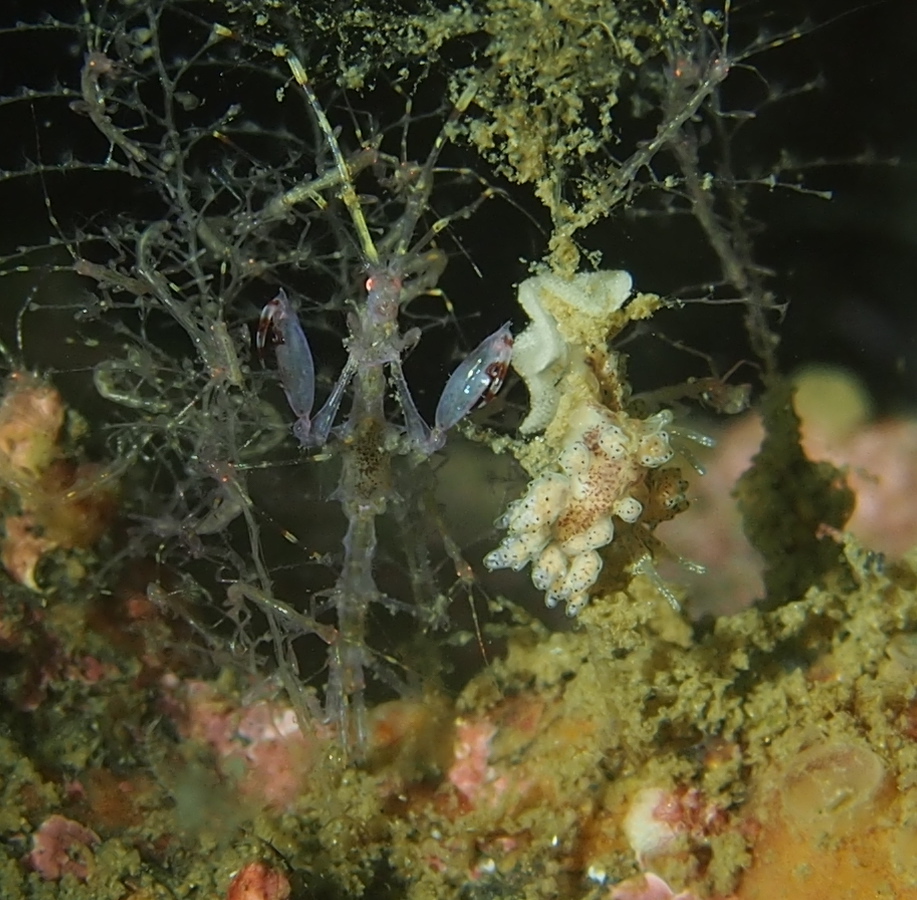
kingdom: Animalia
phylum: Mollusca
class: Gastropoda
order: Nudibranchia
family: Dotidae
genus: Doto
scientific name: Doto dunnei
